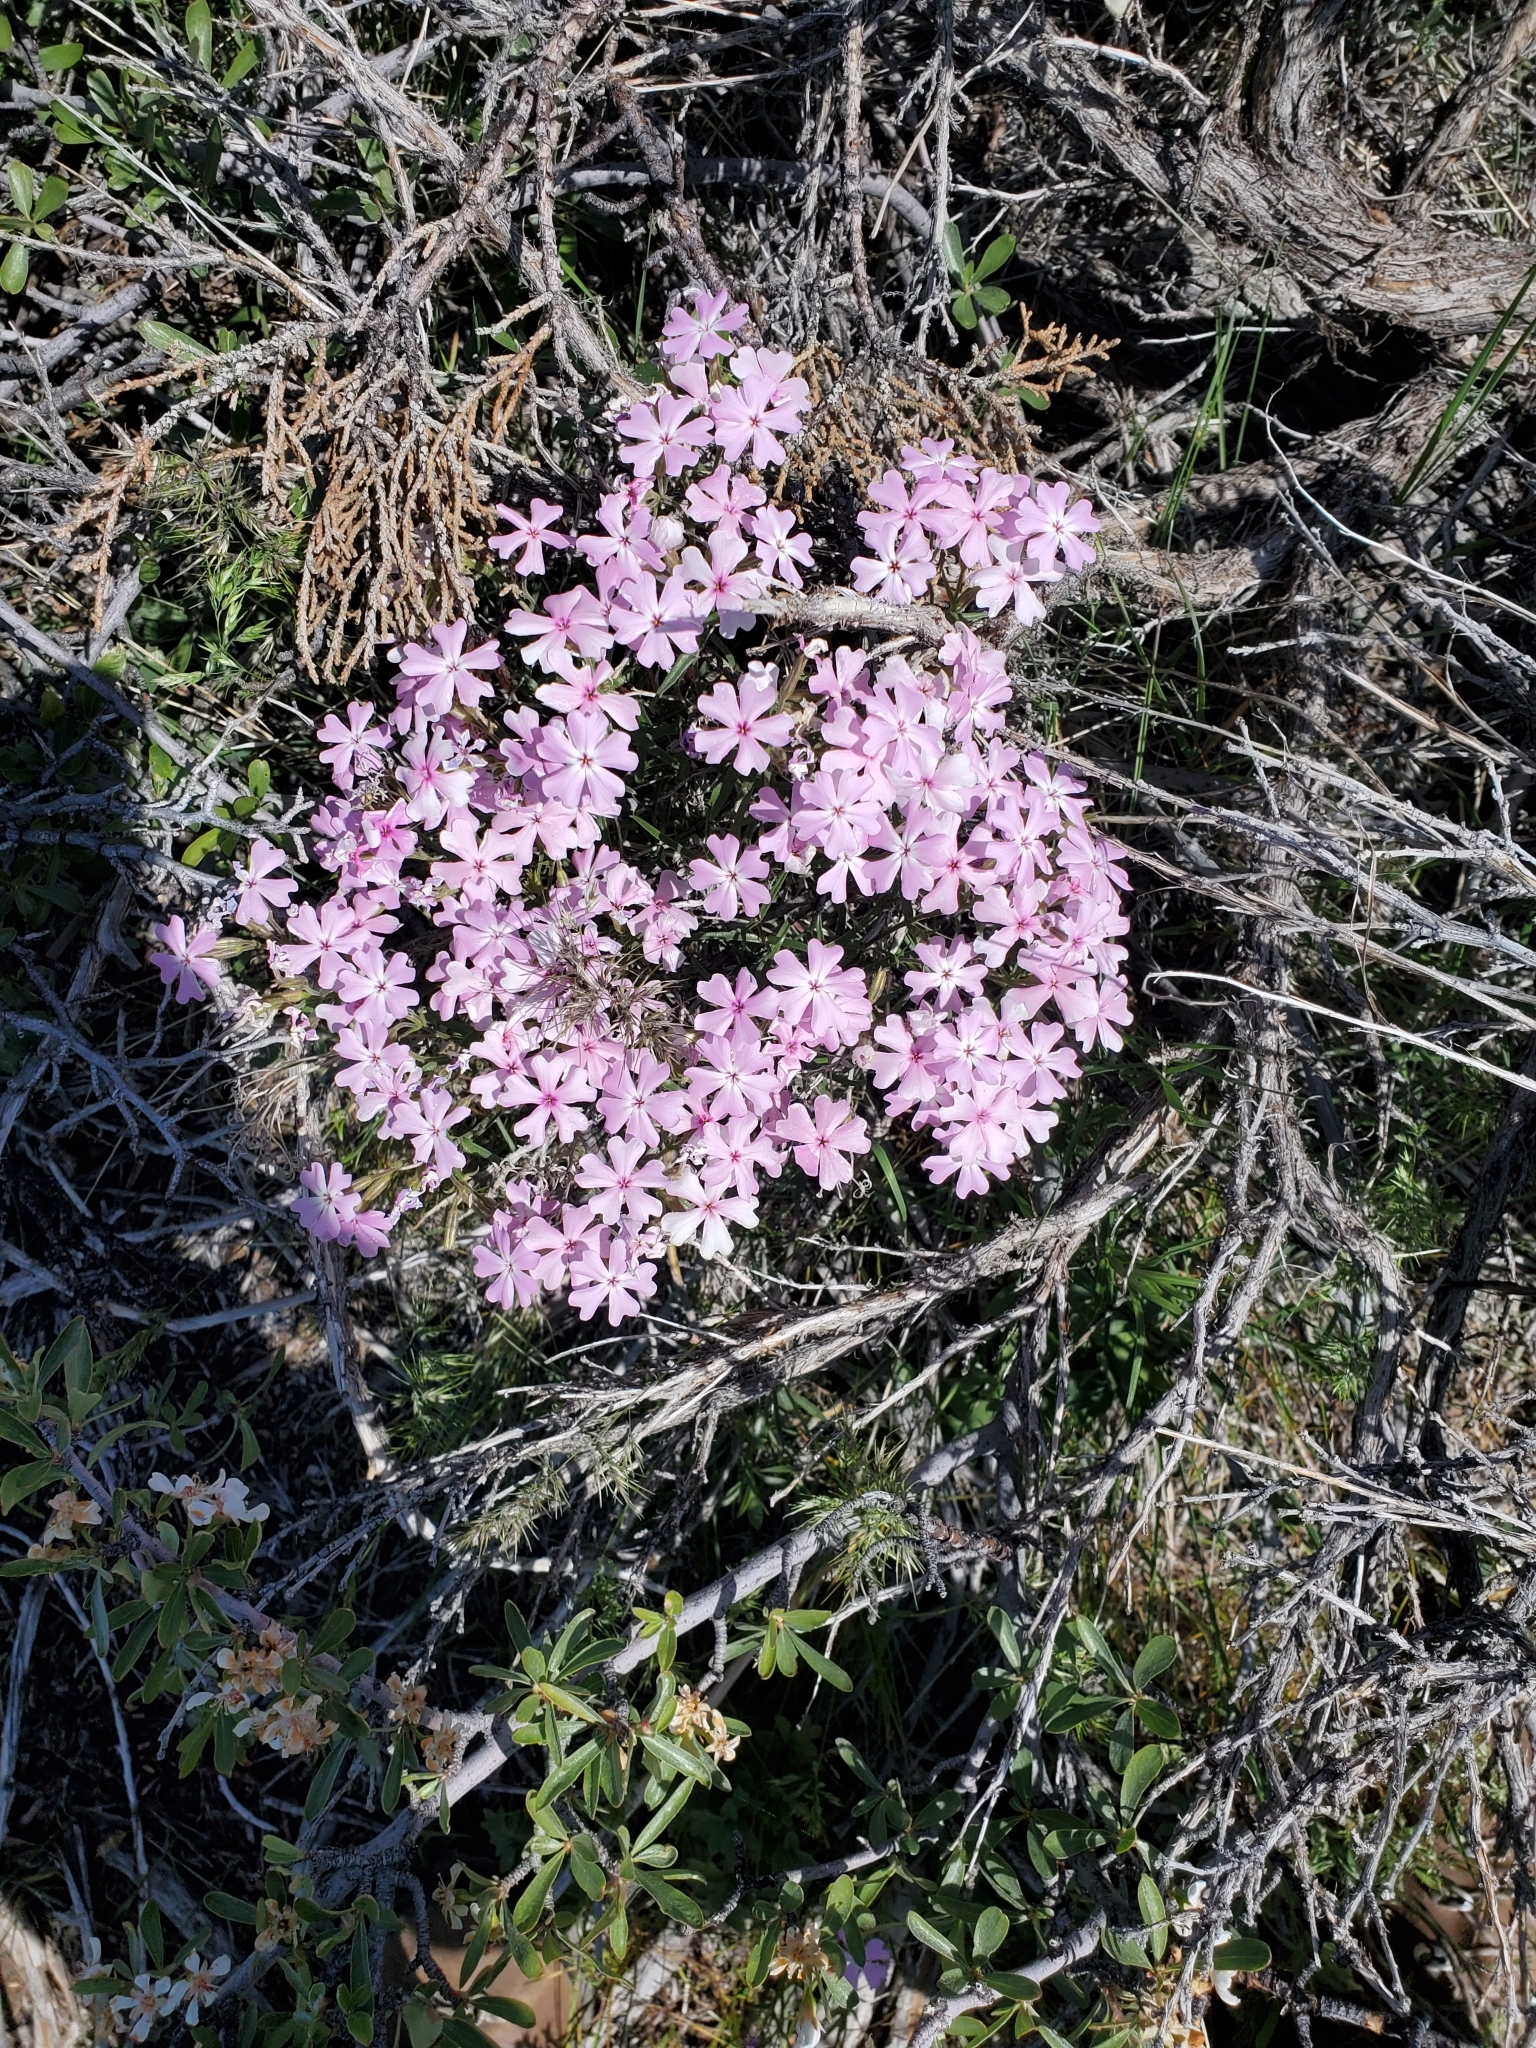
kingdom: Plantae
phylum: Tracheophyta
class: Magnoliopsida
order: Ericales
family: Polemoniaceae
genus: Phlox
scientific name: Phlox longifolia
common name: Longleaf phlox
